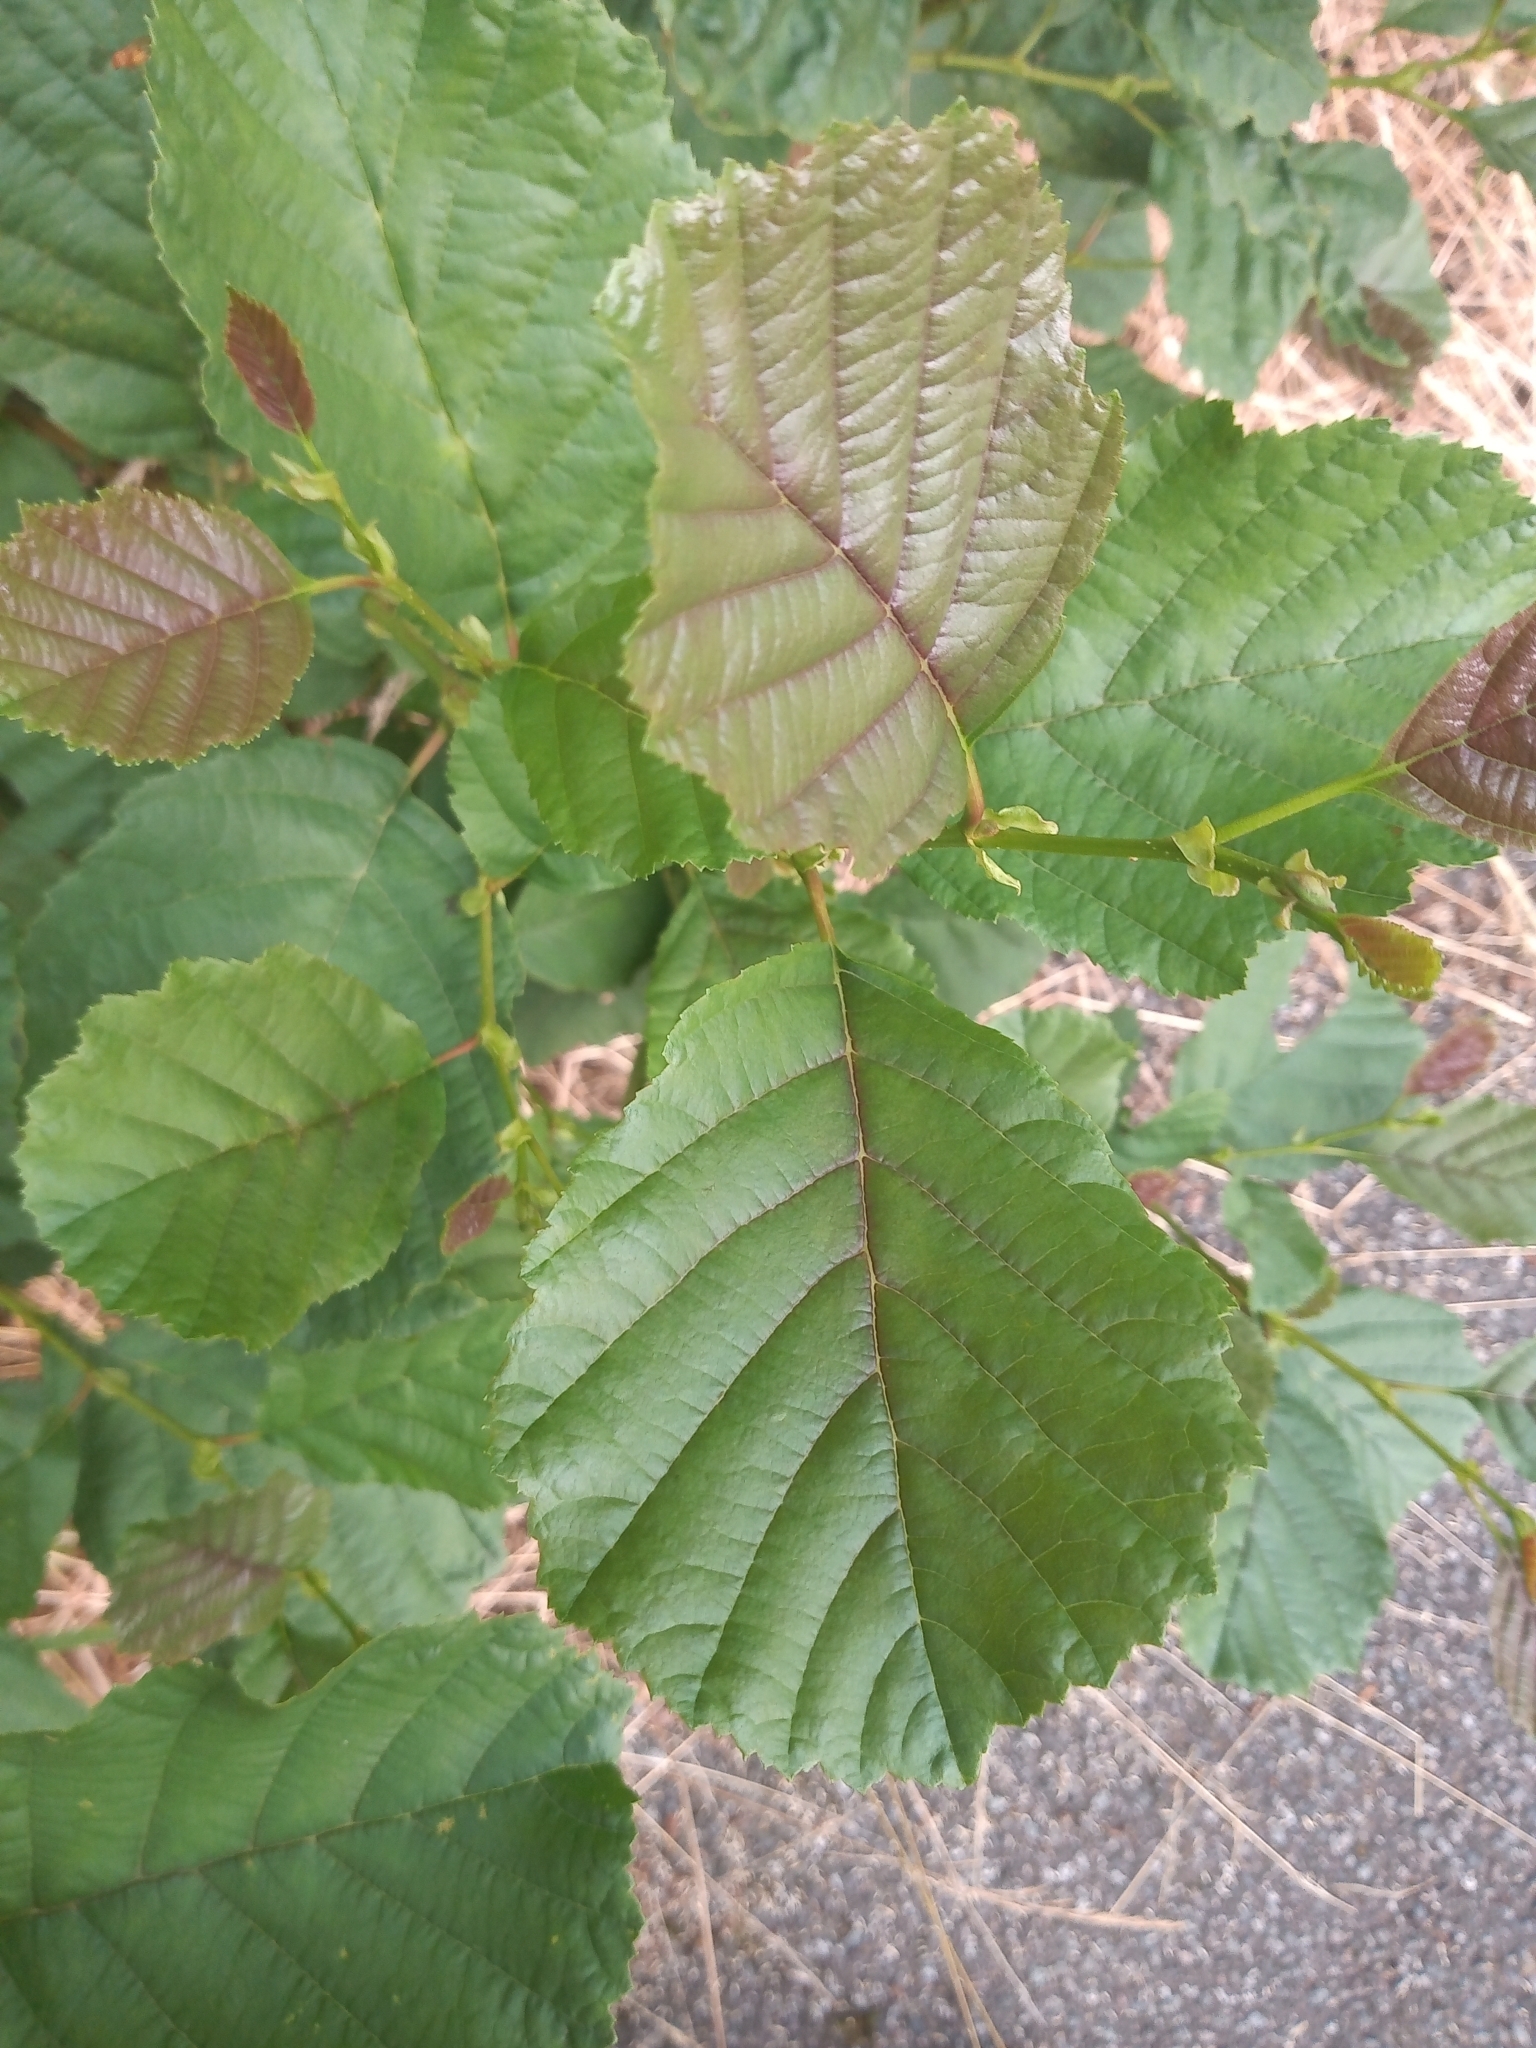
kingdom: Plantae
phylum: Tracheophyta
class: Magnoliopsida
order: Fagales
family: Betulaceae
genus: Alnus
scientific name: Alnus glutinosa
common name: Black alder
